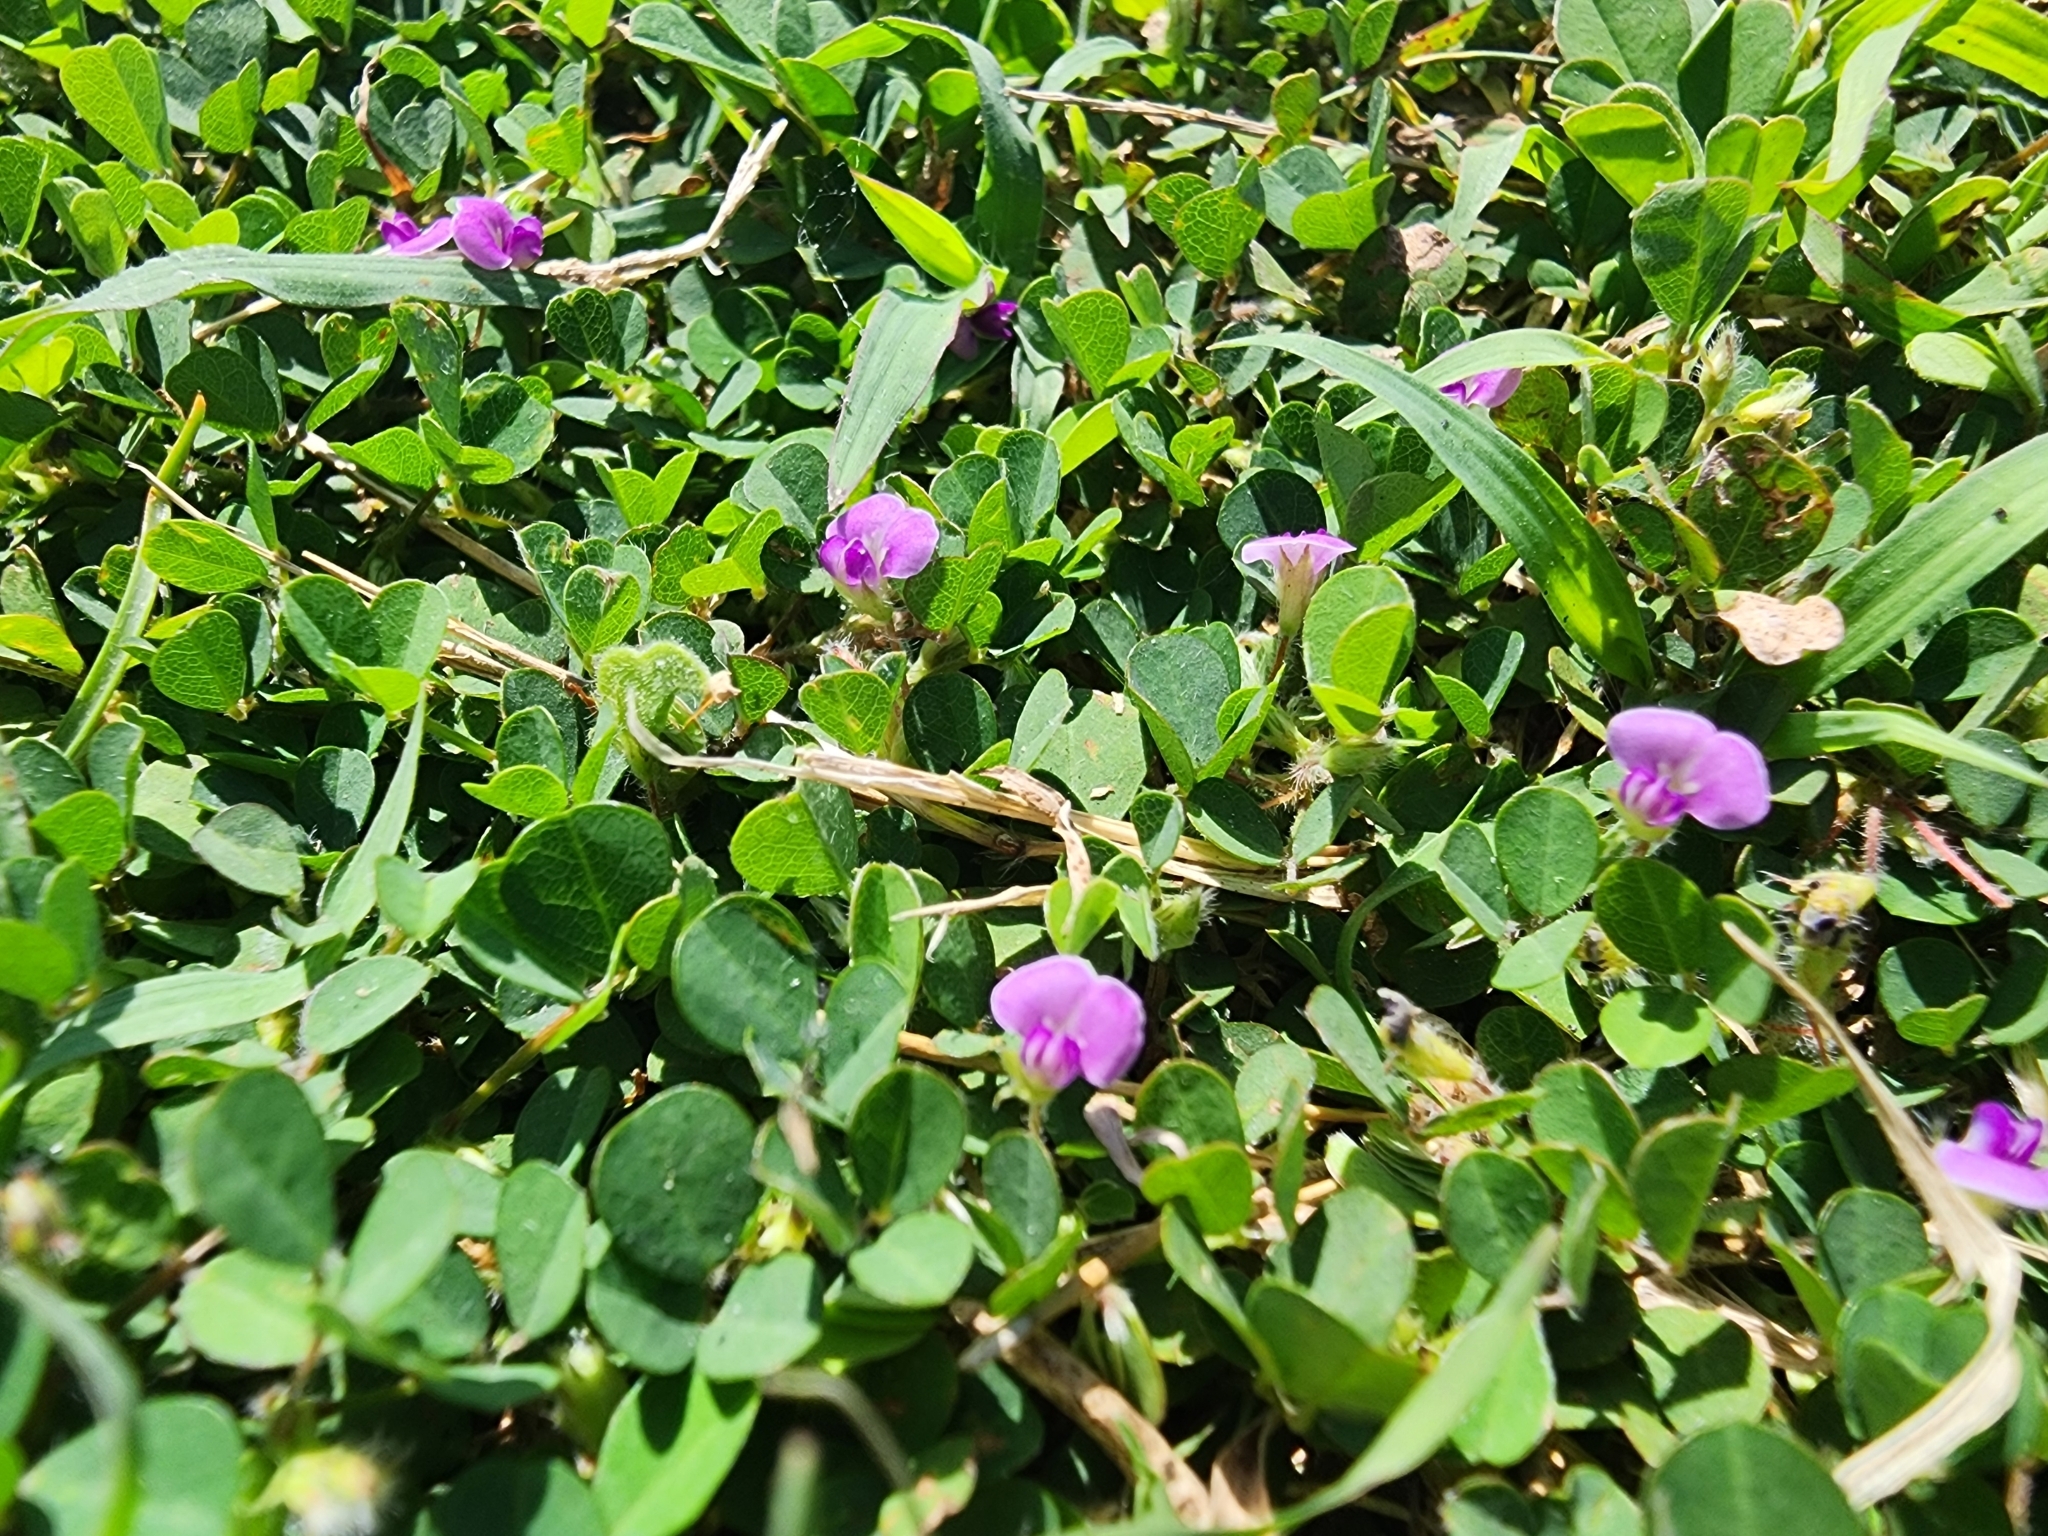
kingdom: Plantae
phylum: Tracheophyta
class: Magnoliopsida
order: Fabales
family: Fabaceae
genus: Grona
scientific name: Grona triflora
